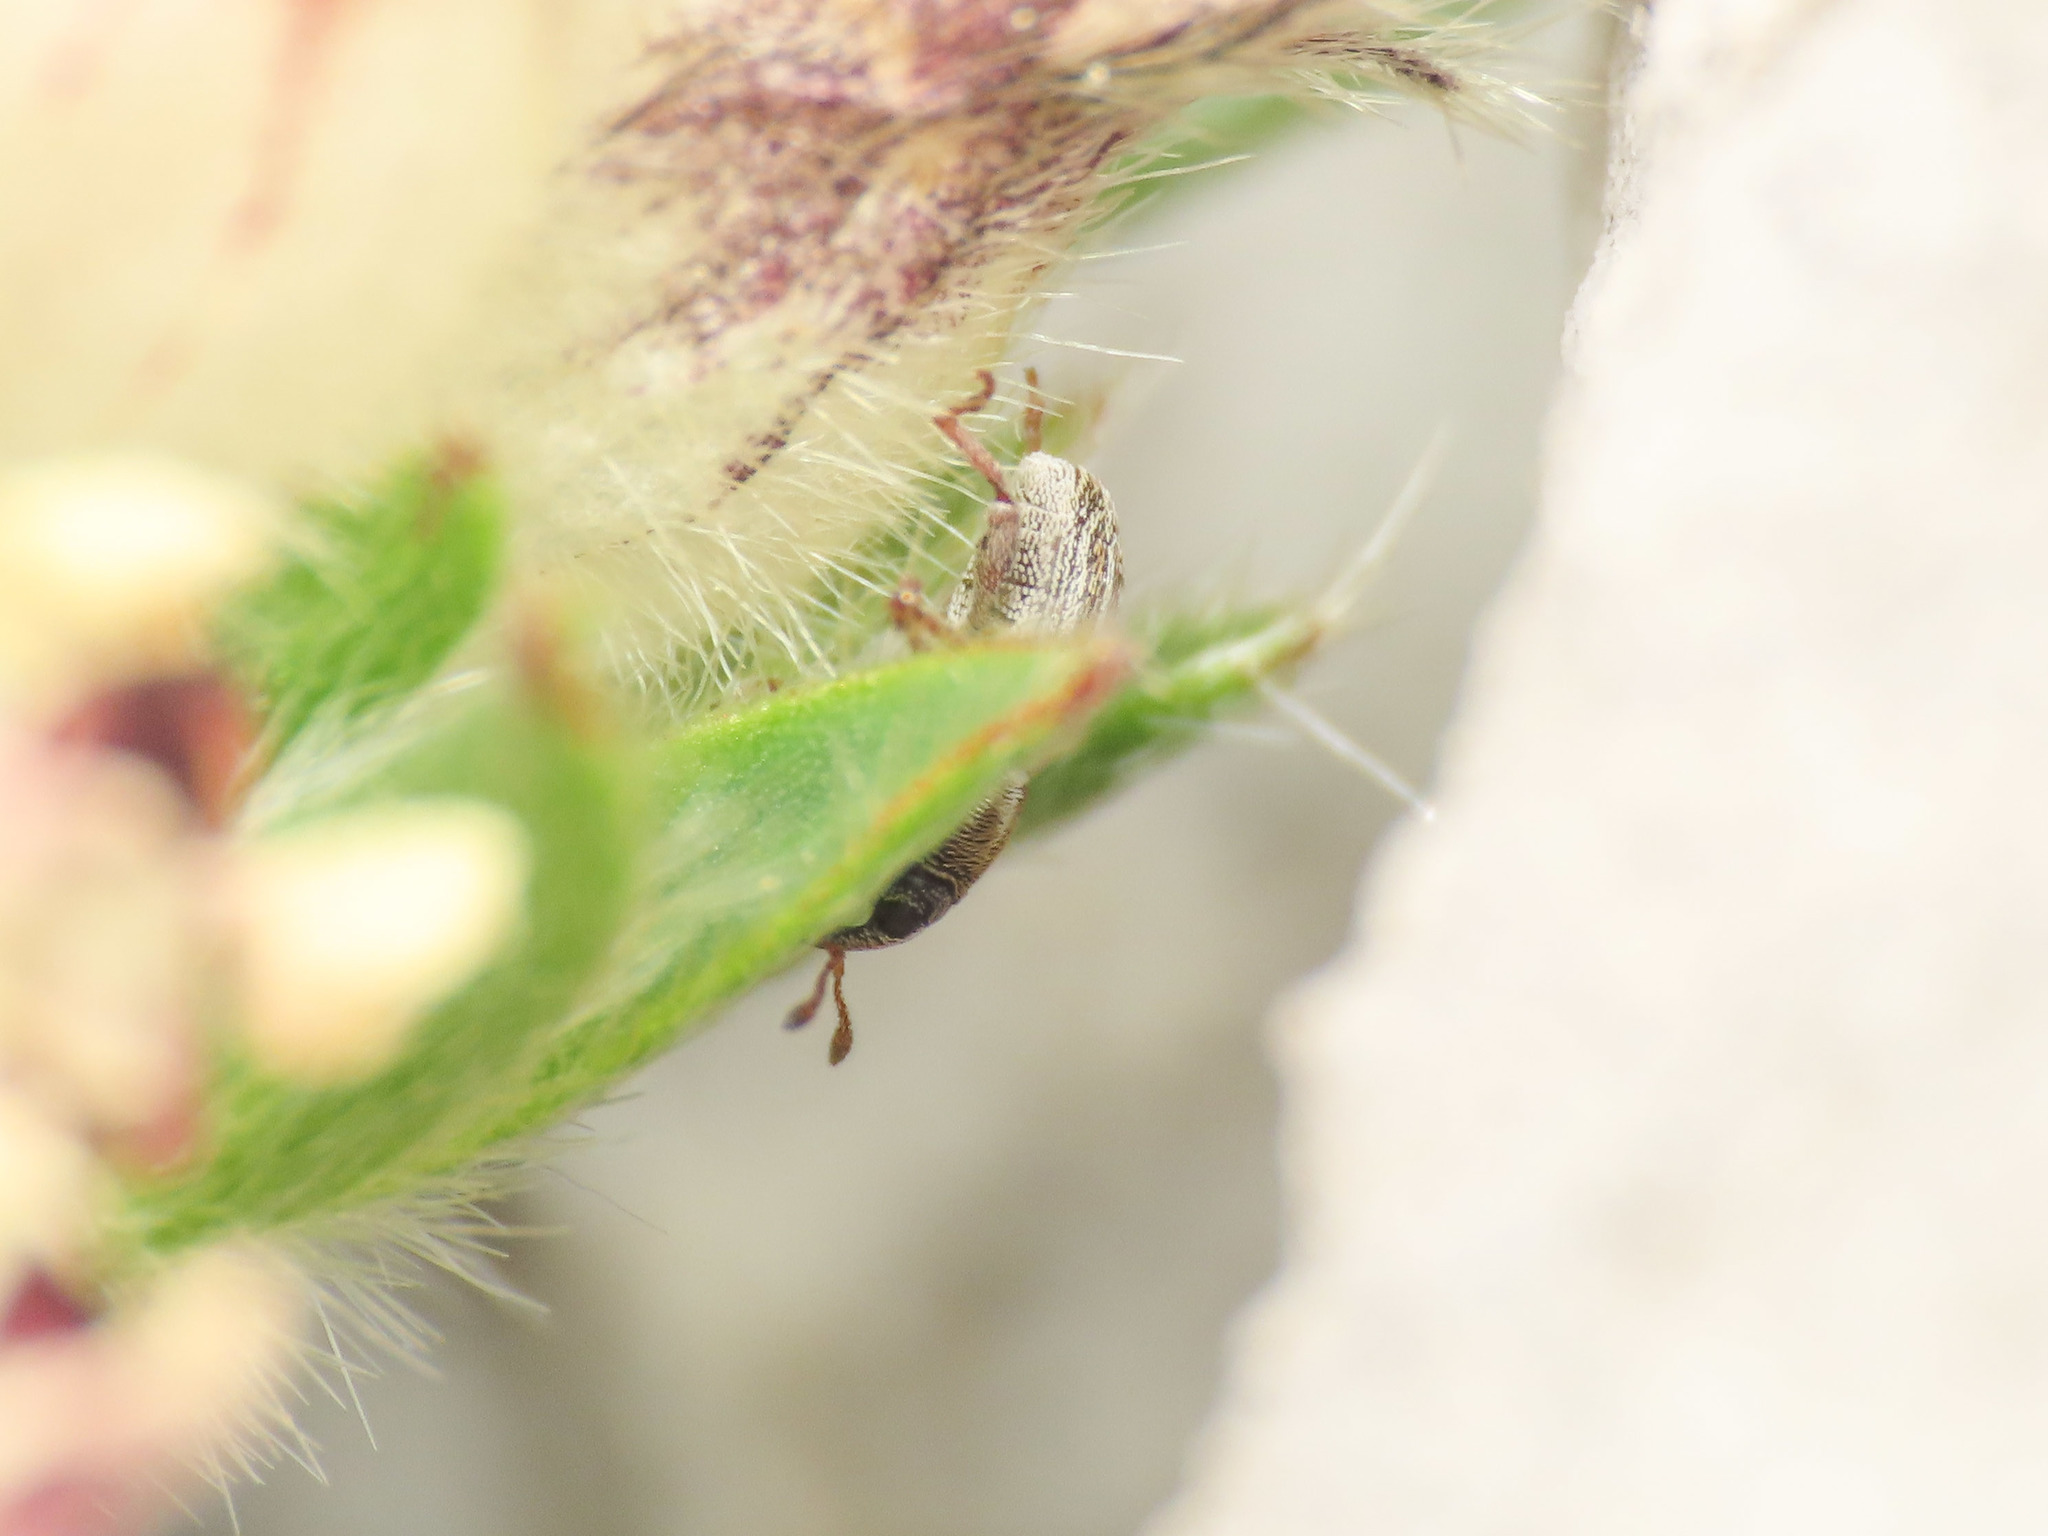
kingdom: Animalia
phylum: Arthropoda
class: Insecta
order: Coleoptera
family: Curculionidae
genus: Tychius
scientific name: Tychius schneideri
